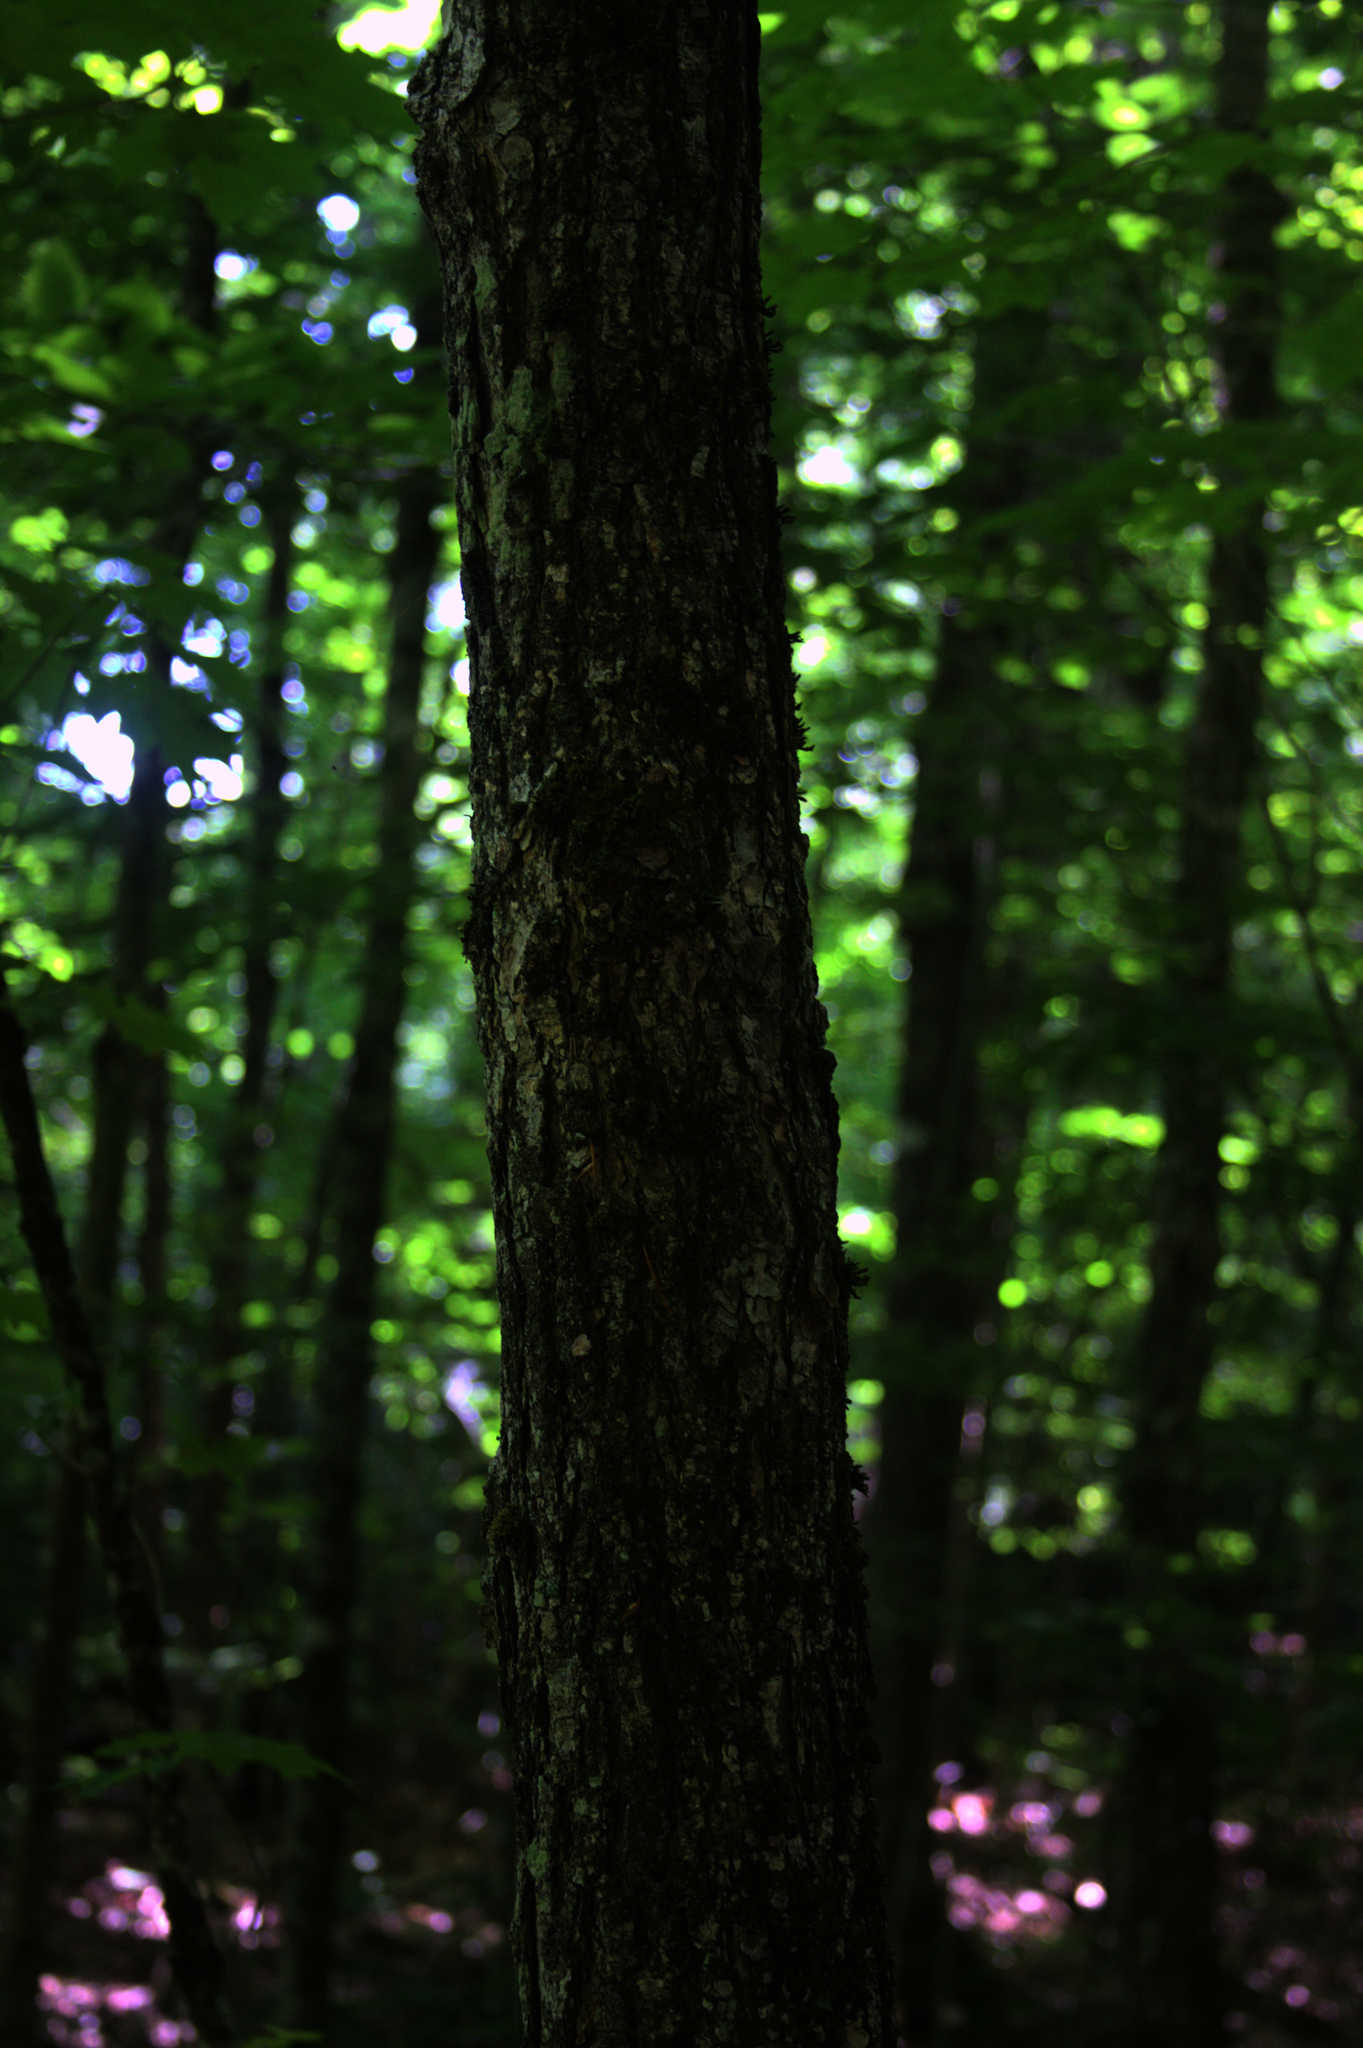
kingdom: Plantae
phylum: Tracheophyta
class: Magnoliopsida
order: Sapindales
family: Sapindaceae
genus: Acer
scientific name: Acer saccharum
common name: Sugar maple
